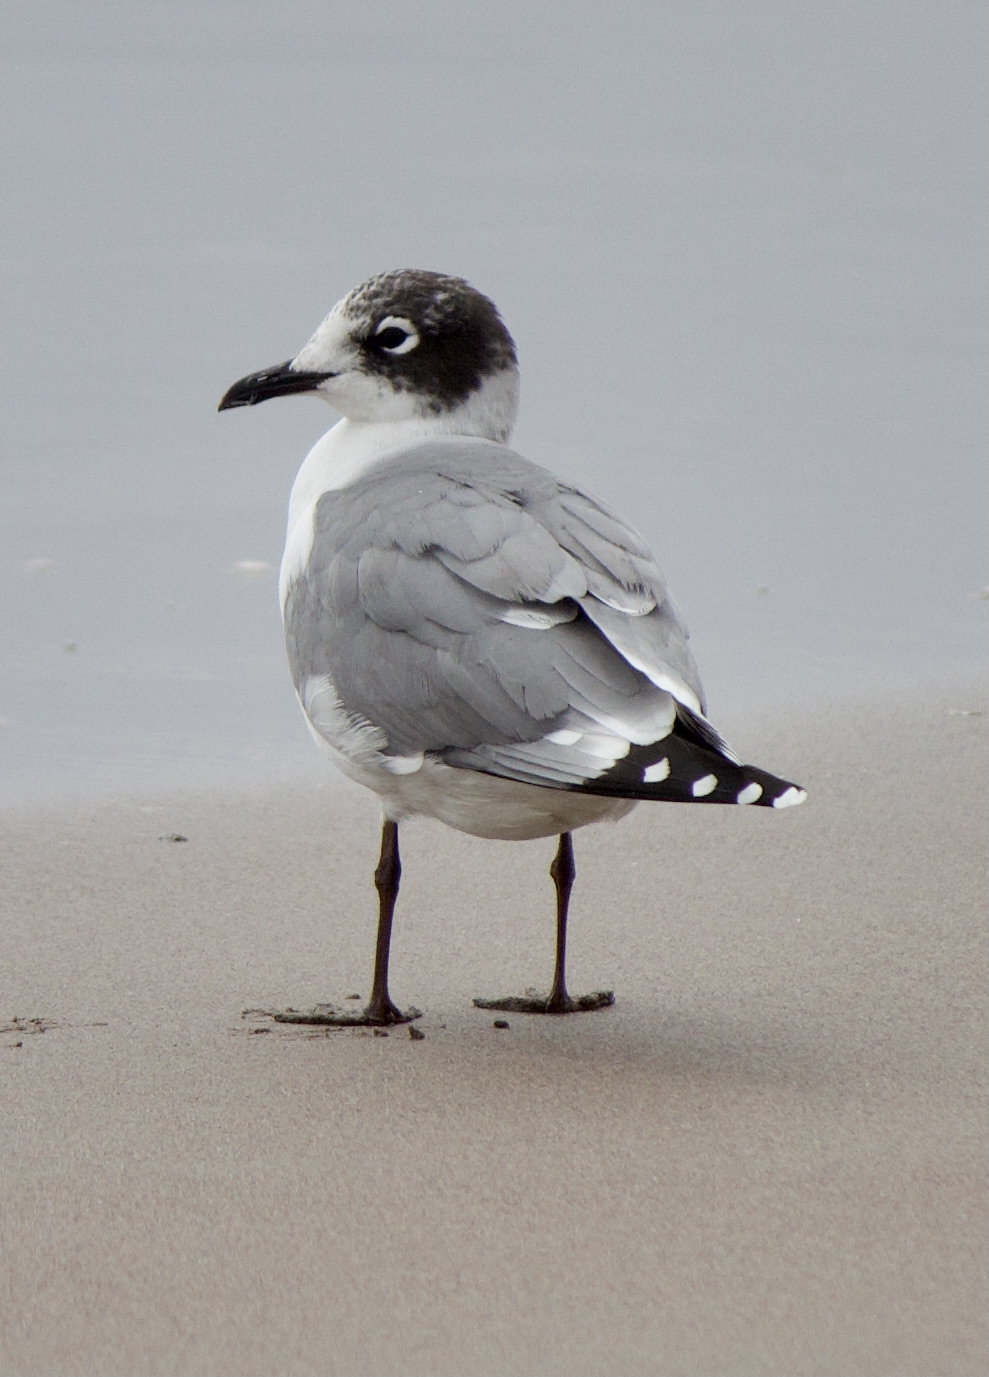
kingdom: Animalia
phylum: Chordata
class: Aves
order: Charadriiformes
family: Laridae
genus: Leucophaeus
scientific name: Leucophaeus pipixcan
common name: Franklin's gull
